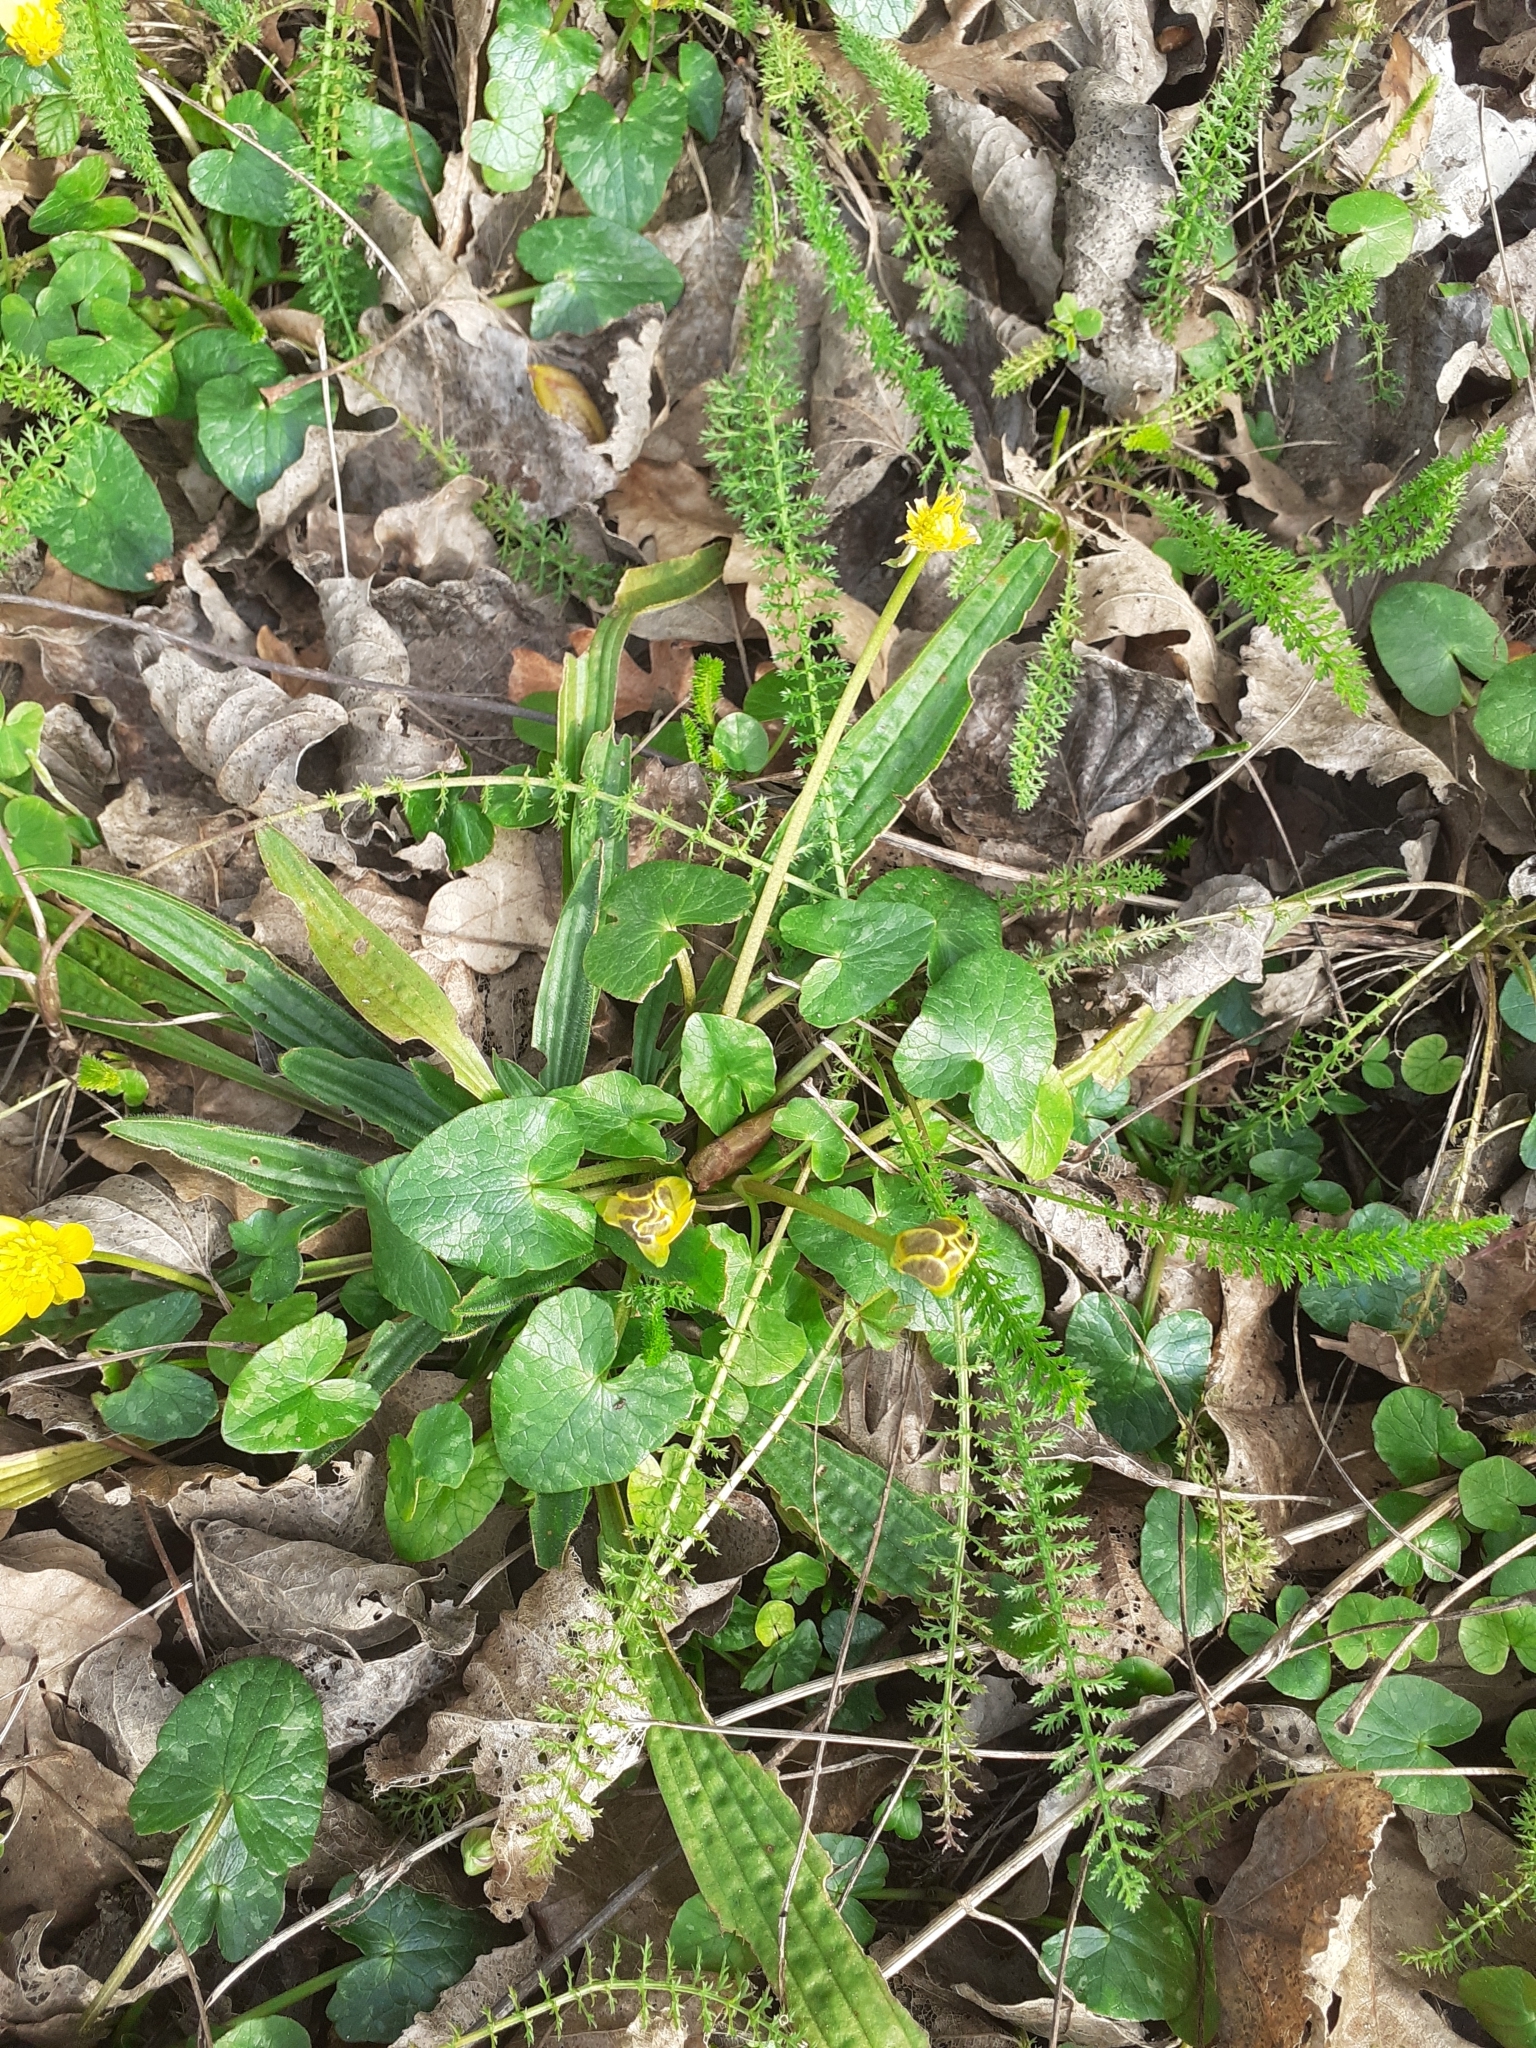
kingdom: Plantae
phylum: Tracheophyta
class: Magnoliopsida
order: Ranunculales
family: Ranunculaceae
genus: Ficaria
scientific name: Ficaria verna
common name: Lesser celandine
